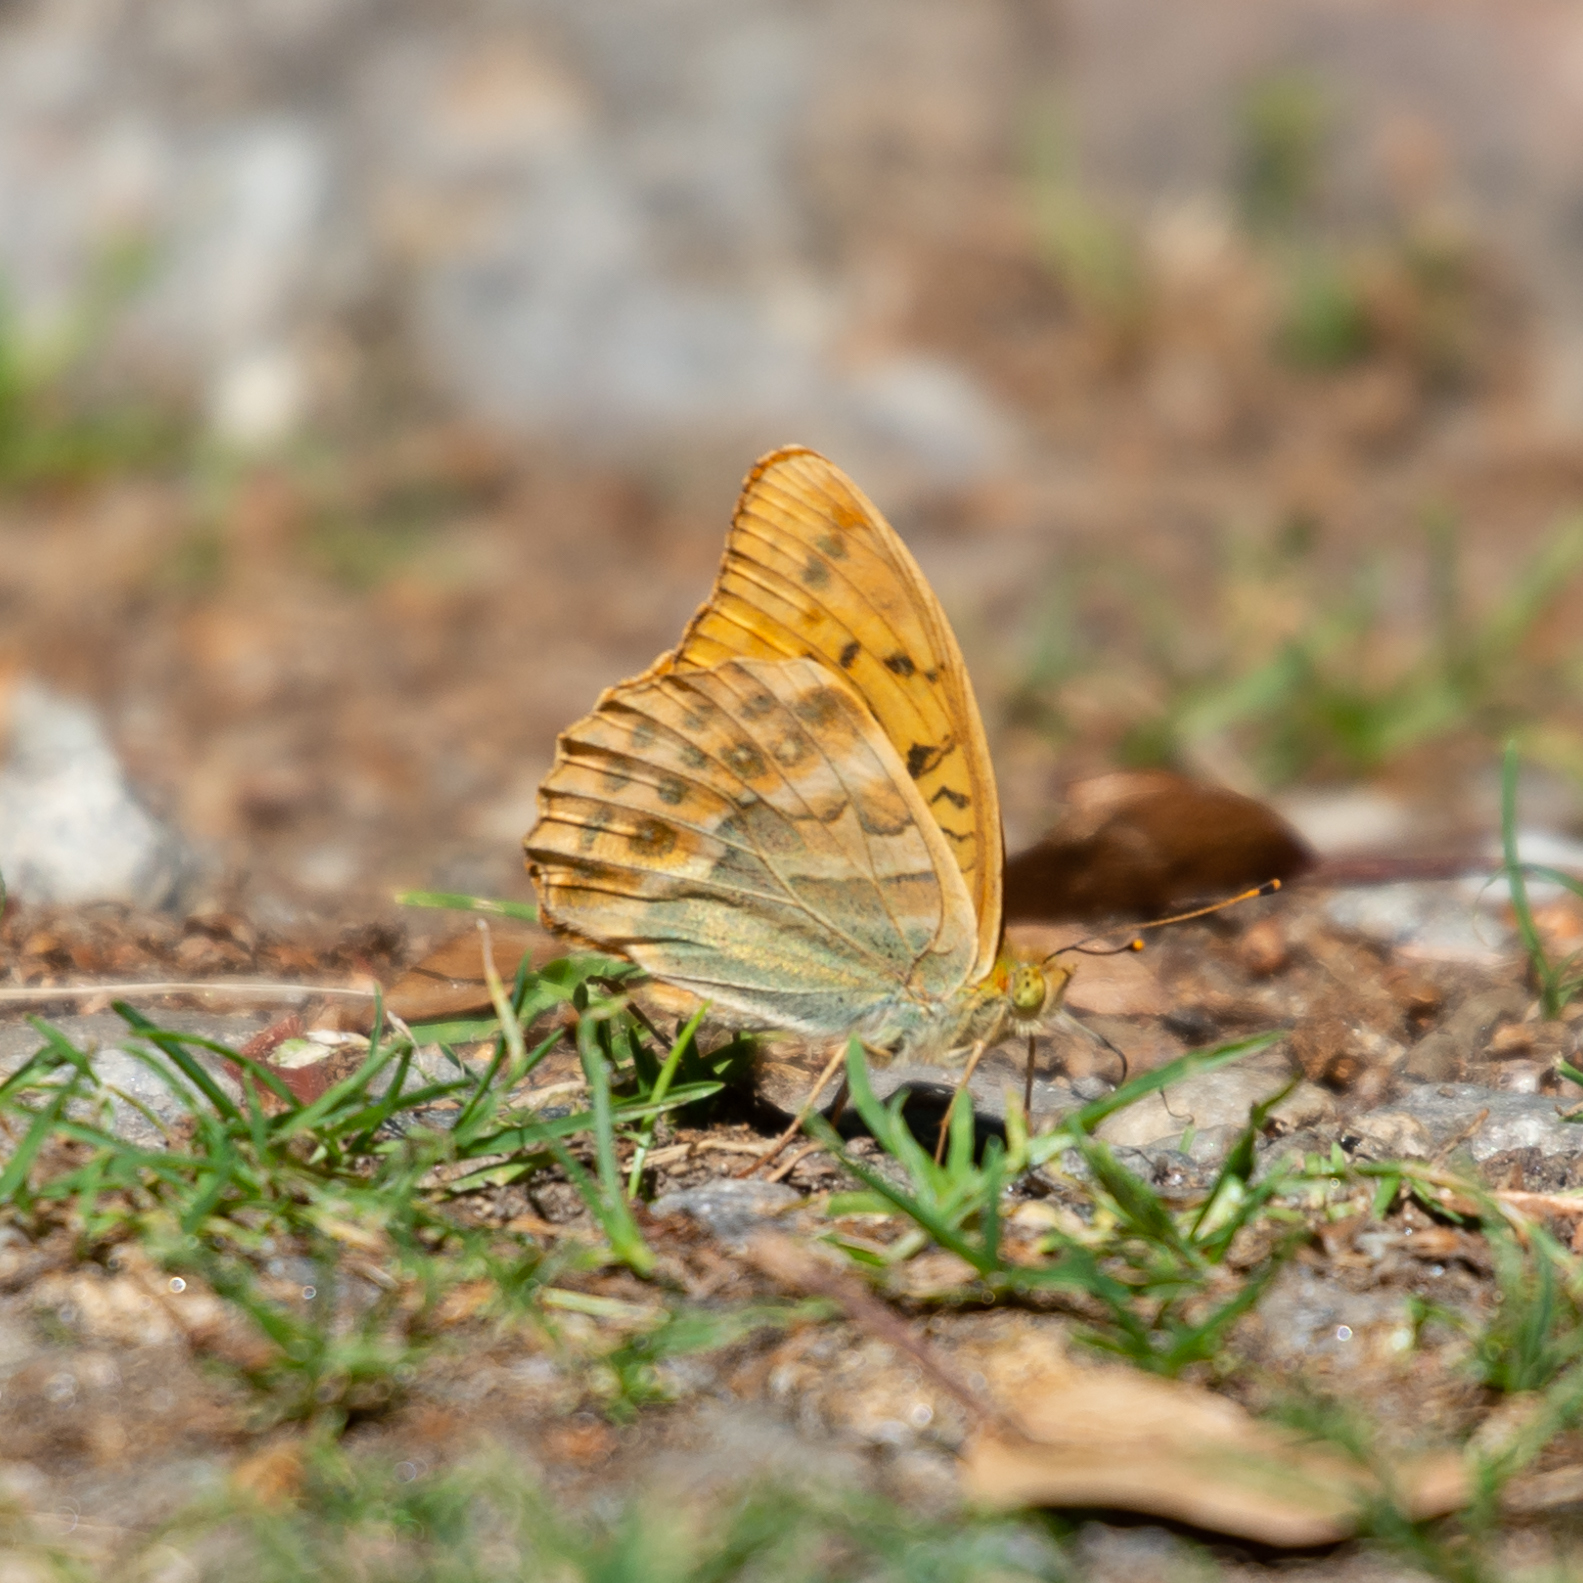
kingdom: Animalia
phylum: Arthropoda
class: Insecta
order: Lepidoptera
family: Nymphalidae
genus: Argynnis
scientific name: Argynnis paphia
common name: Silver-washed fritillary
